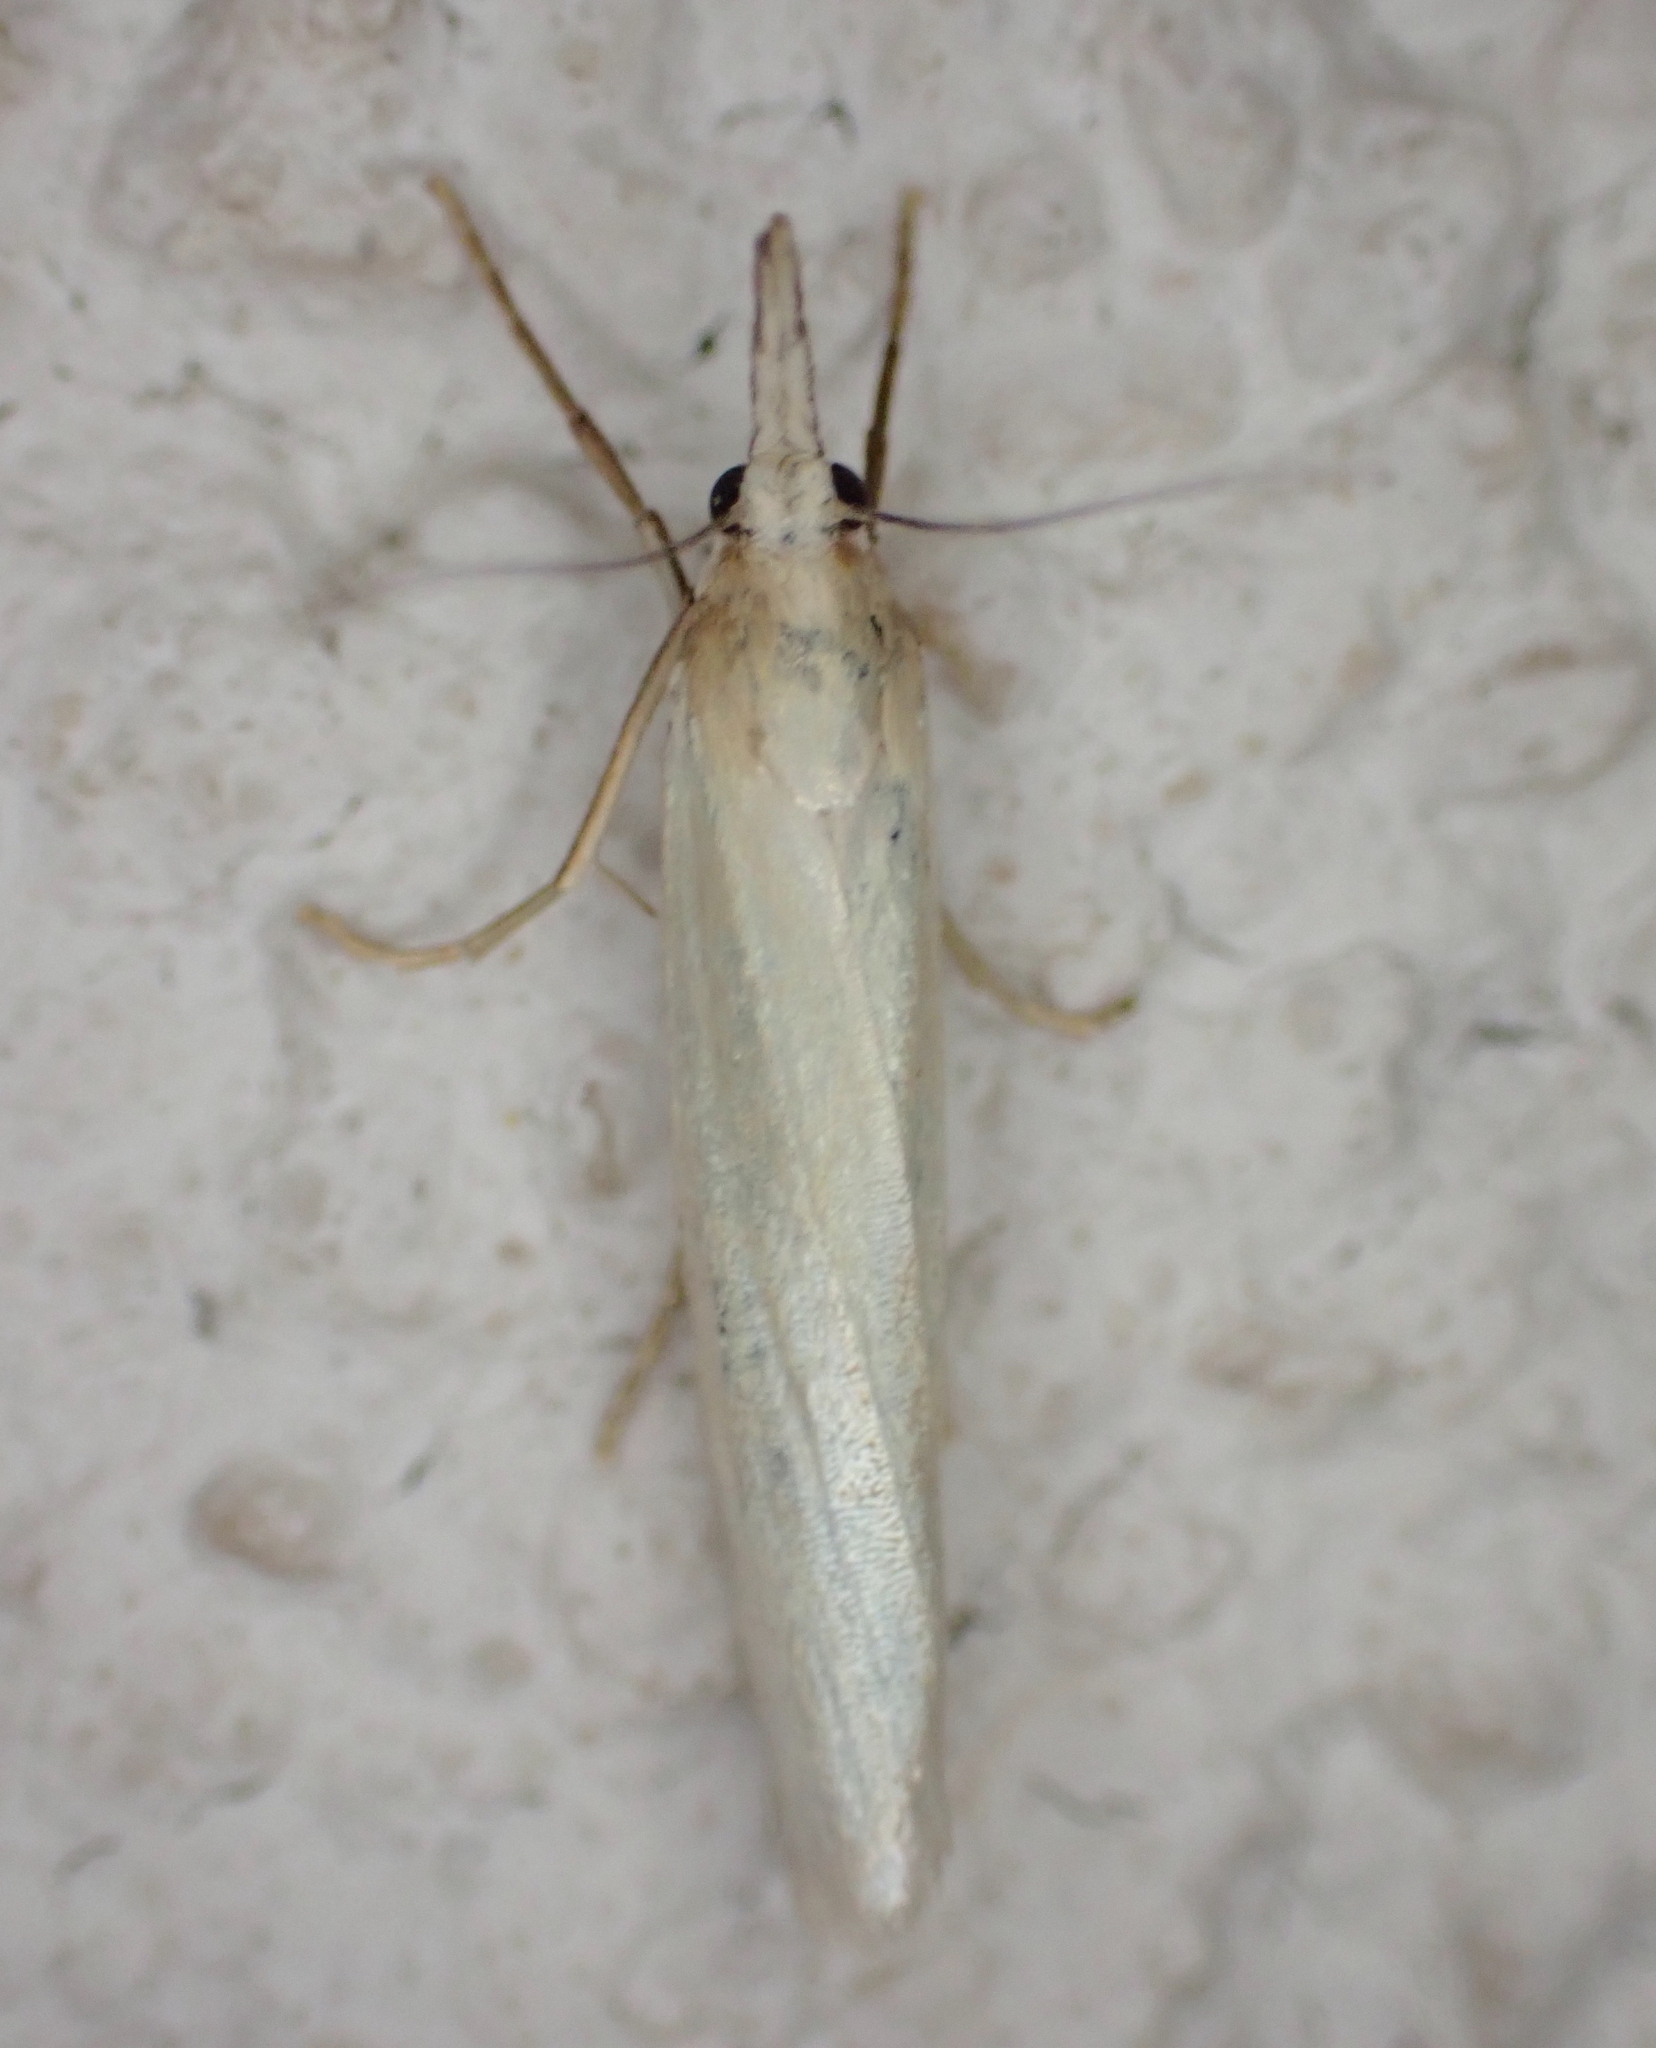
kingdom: Animalia
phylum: Arthropoda
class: Insecta
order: Lepidoptera
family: Crambidae
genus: Crambus
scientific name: Crambus perlellus
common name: Yellow satin veneer
